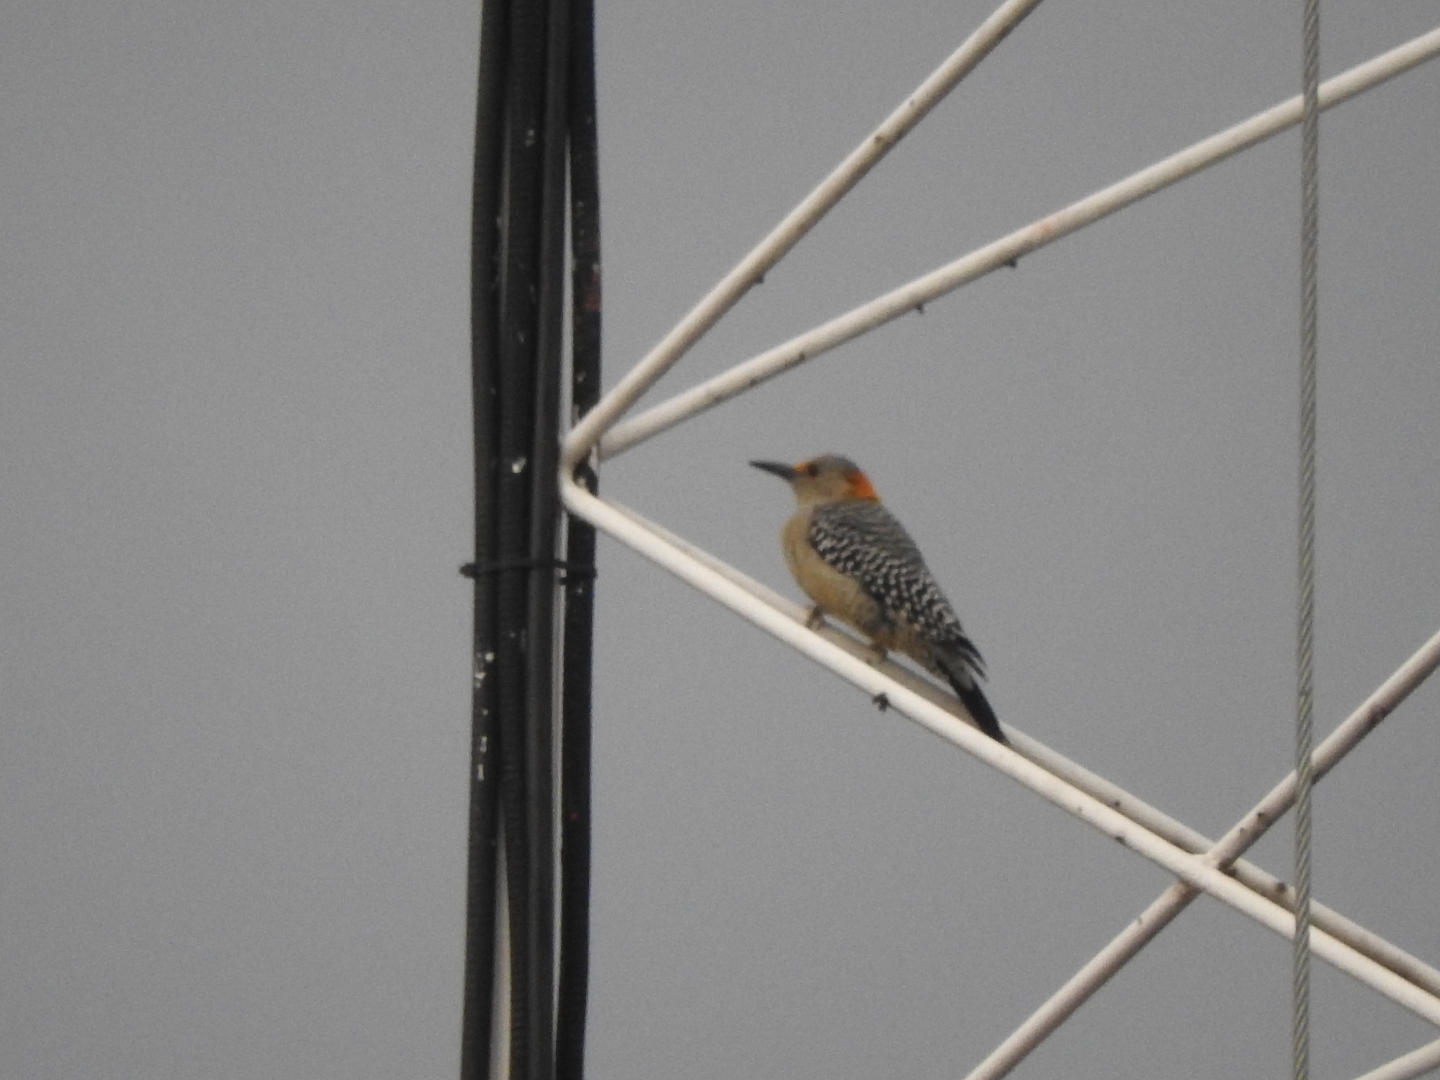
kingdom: Animalia
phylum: Chordata
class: Aves
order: Piciformes
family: Picidae
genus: Melanerpes
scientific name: Melanerpes aurifrons
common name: Golden-fronted woodpecker
